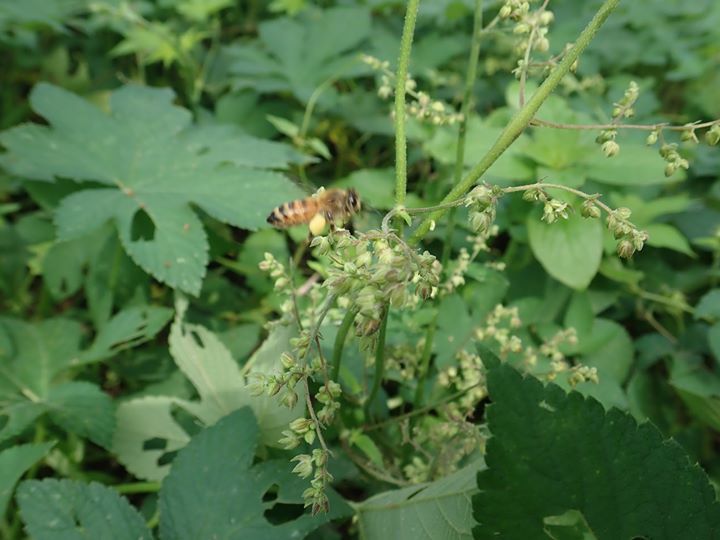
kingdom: Plantae
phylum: Tracheophyta
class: Magnoliopsida
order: Rosales
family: Cannabaceae
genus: Humulus
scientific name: Humulus scandens
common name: Japanese hop
